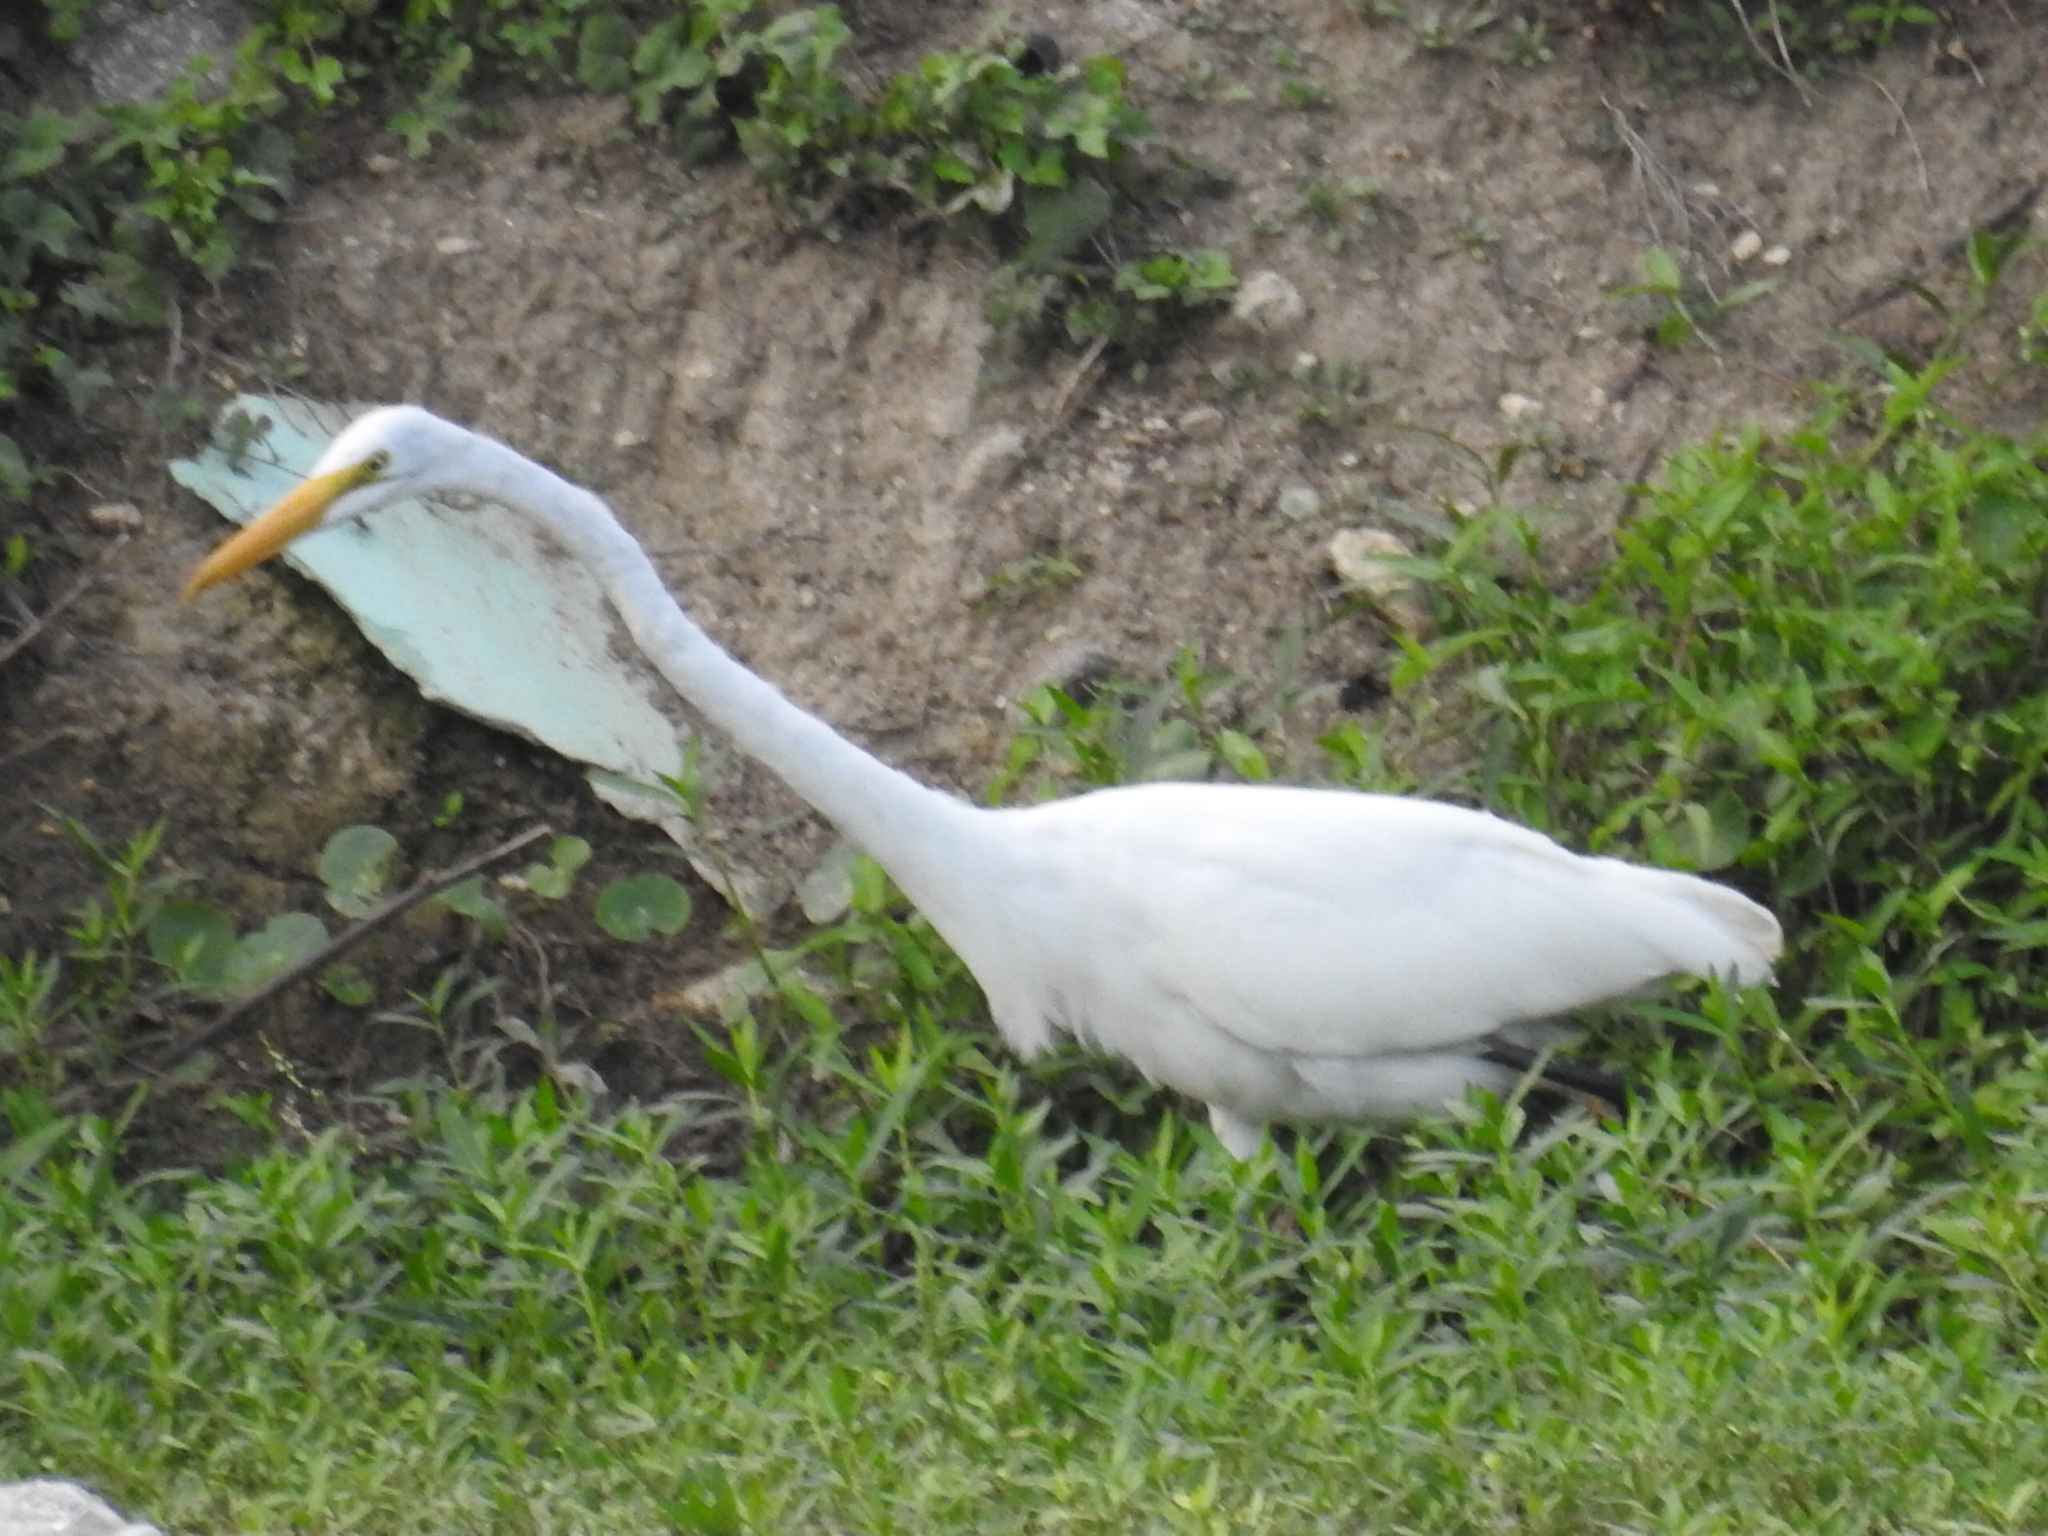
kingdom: Animalia
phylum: Chordata
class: Aves
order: Pelecaniformes
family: Ardeidae
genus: Ardea
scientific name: Ardea alba
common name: Great egret
